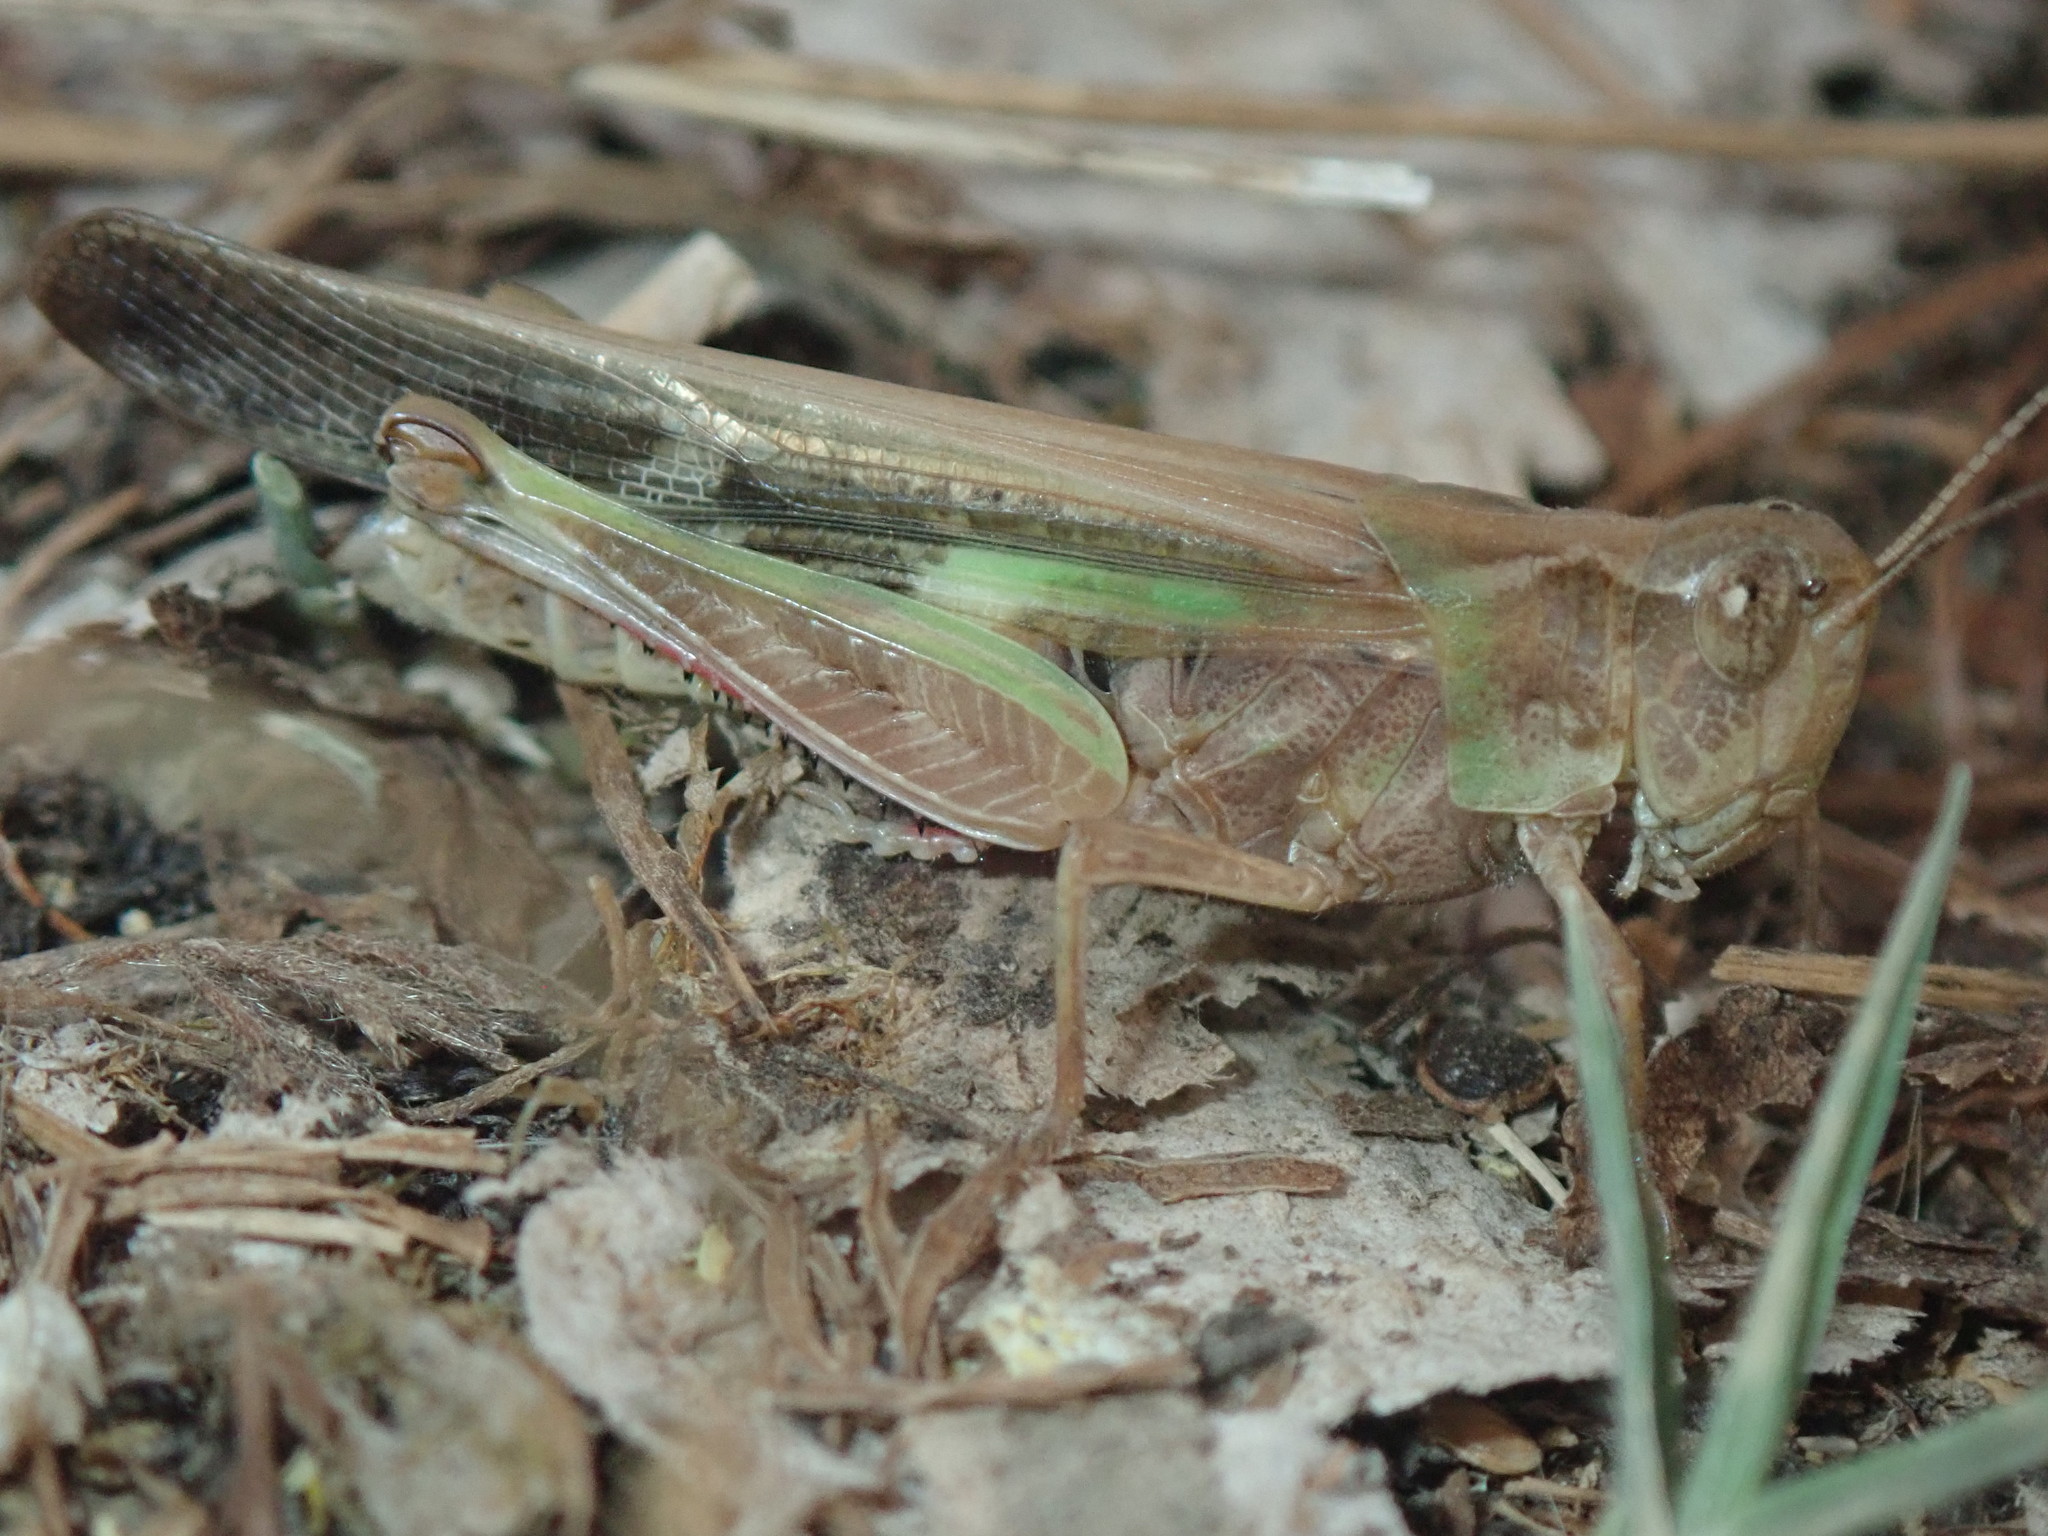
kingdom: Animalia
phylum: Arthropoda
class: Insecta
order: Orthoptera
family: Acrididae
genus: Aiolopus
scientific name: Aiolopus thalassinus
